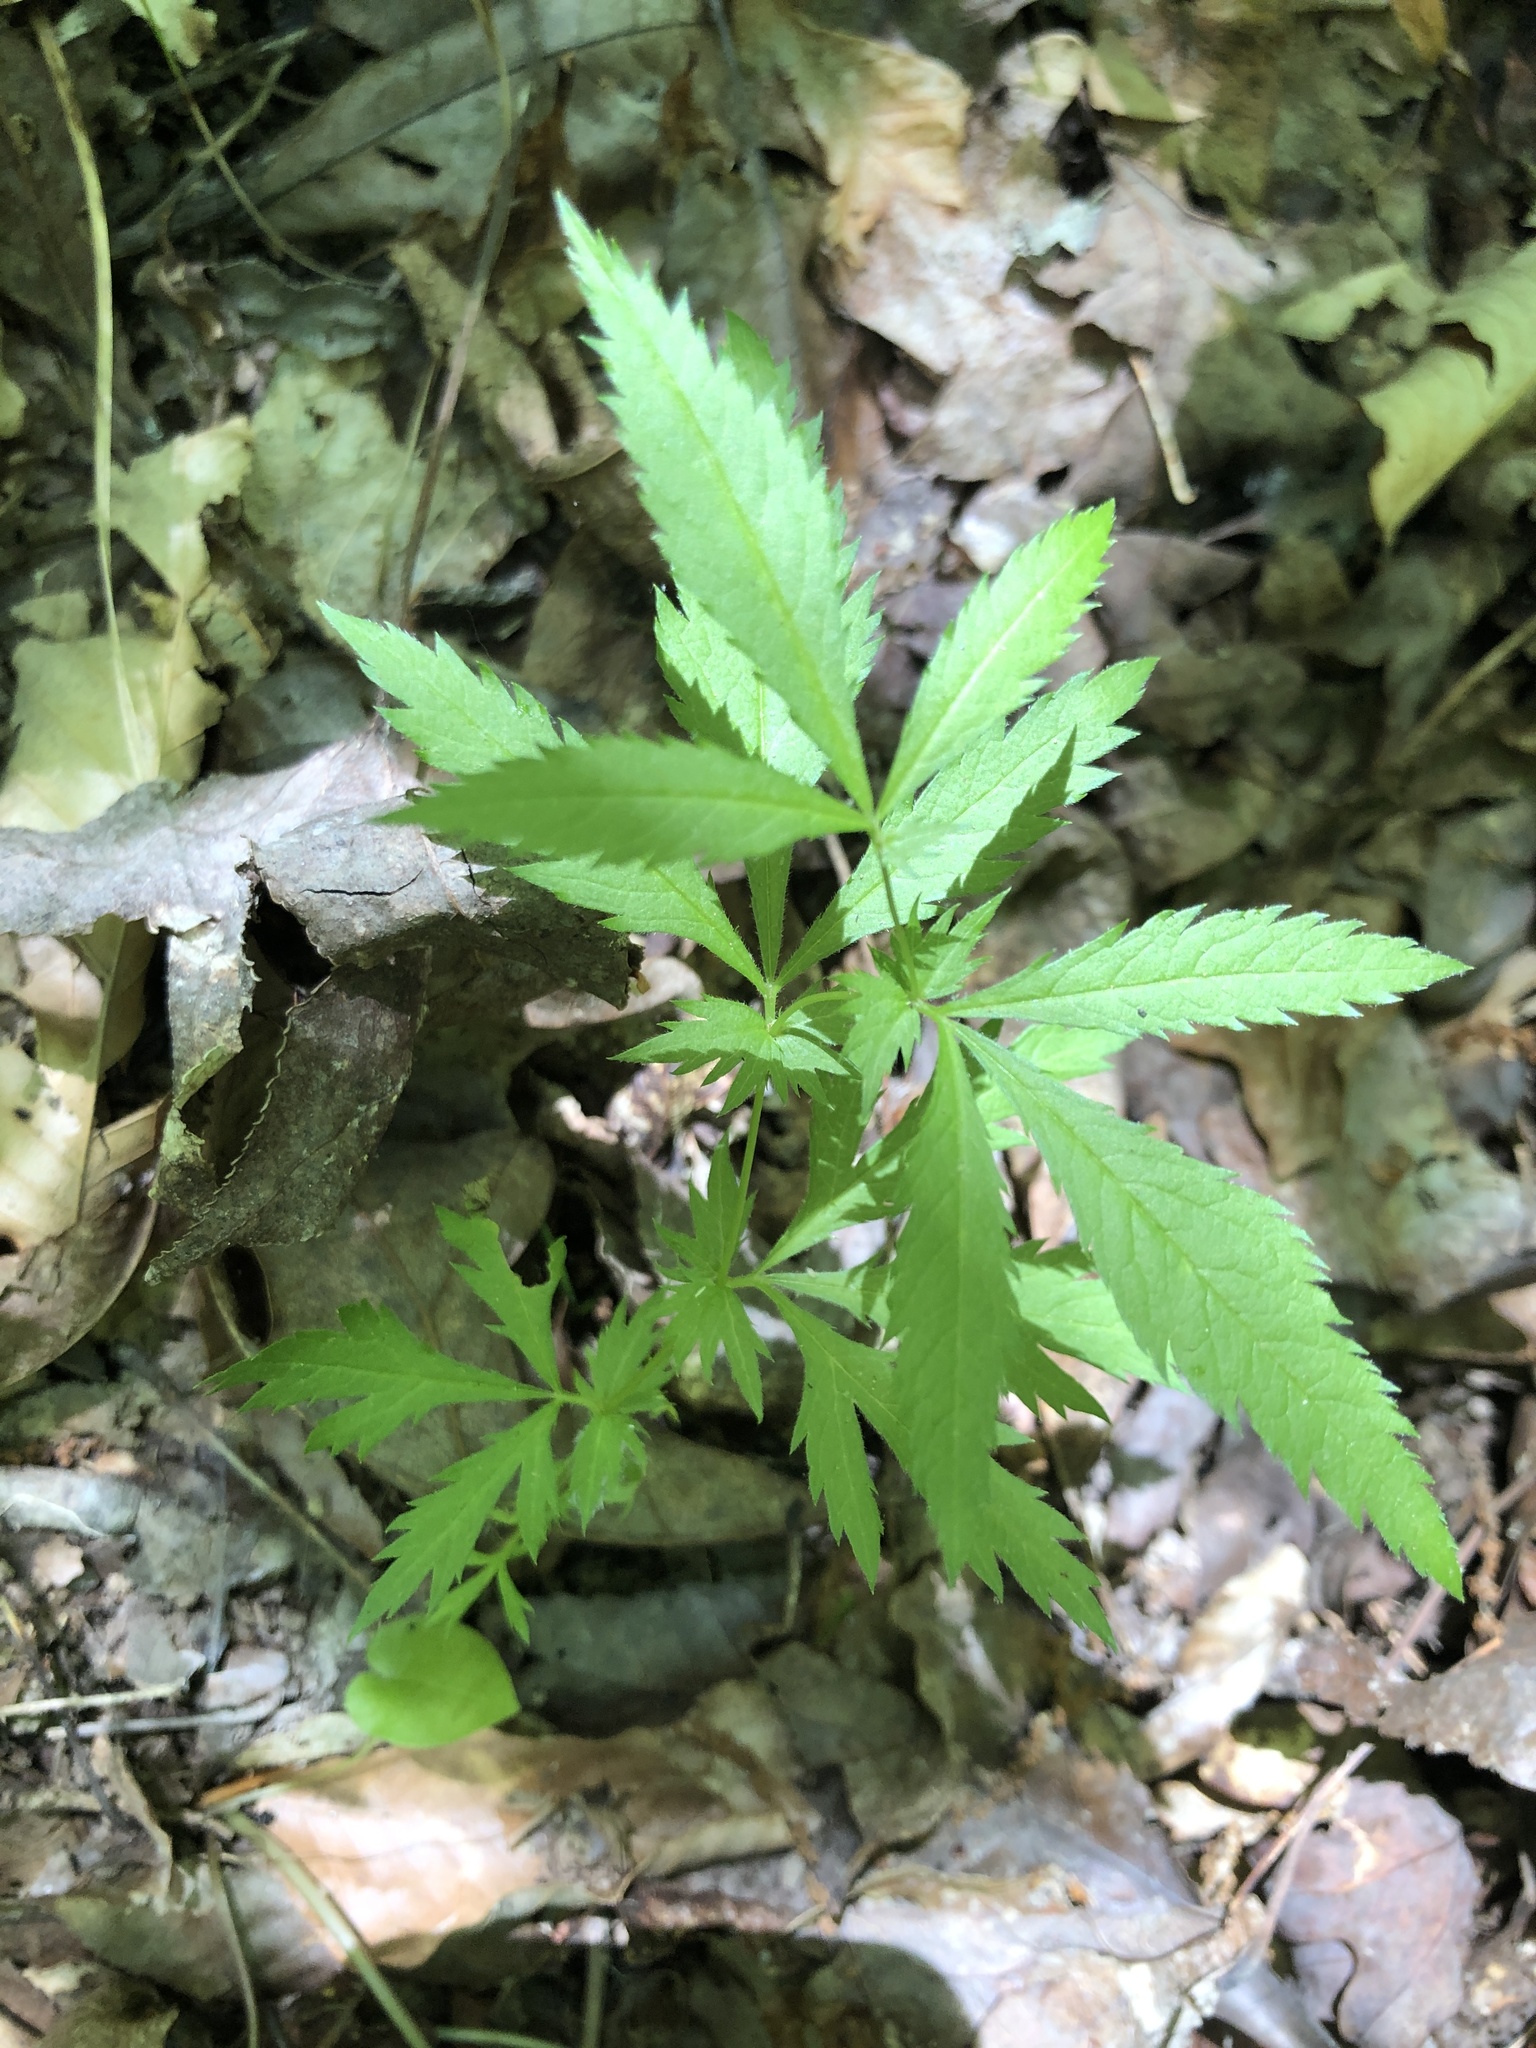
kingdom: Plantae
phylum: Tracheophyta
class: Magnoliopsida
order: Rosales
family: Rosaceae
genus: Gillenia
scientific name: Gillenia stipulata
